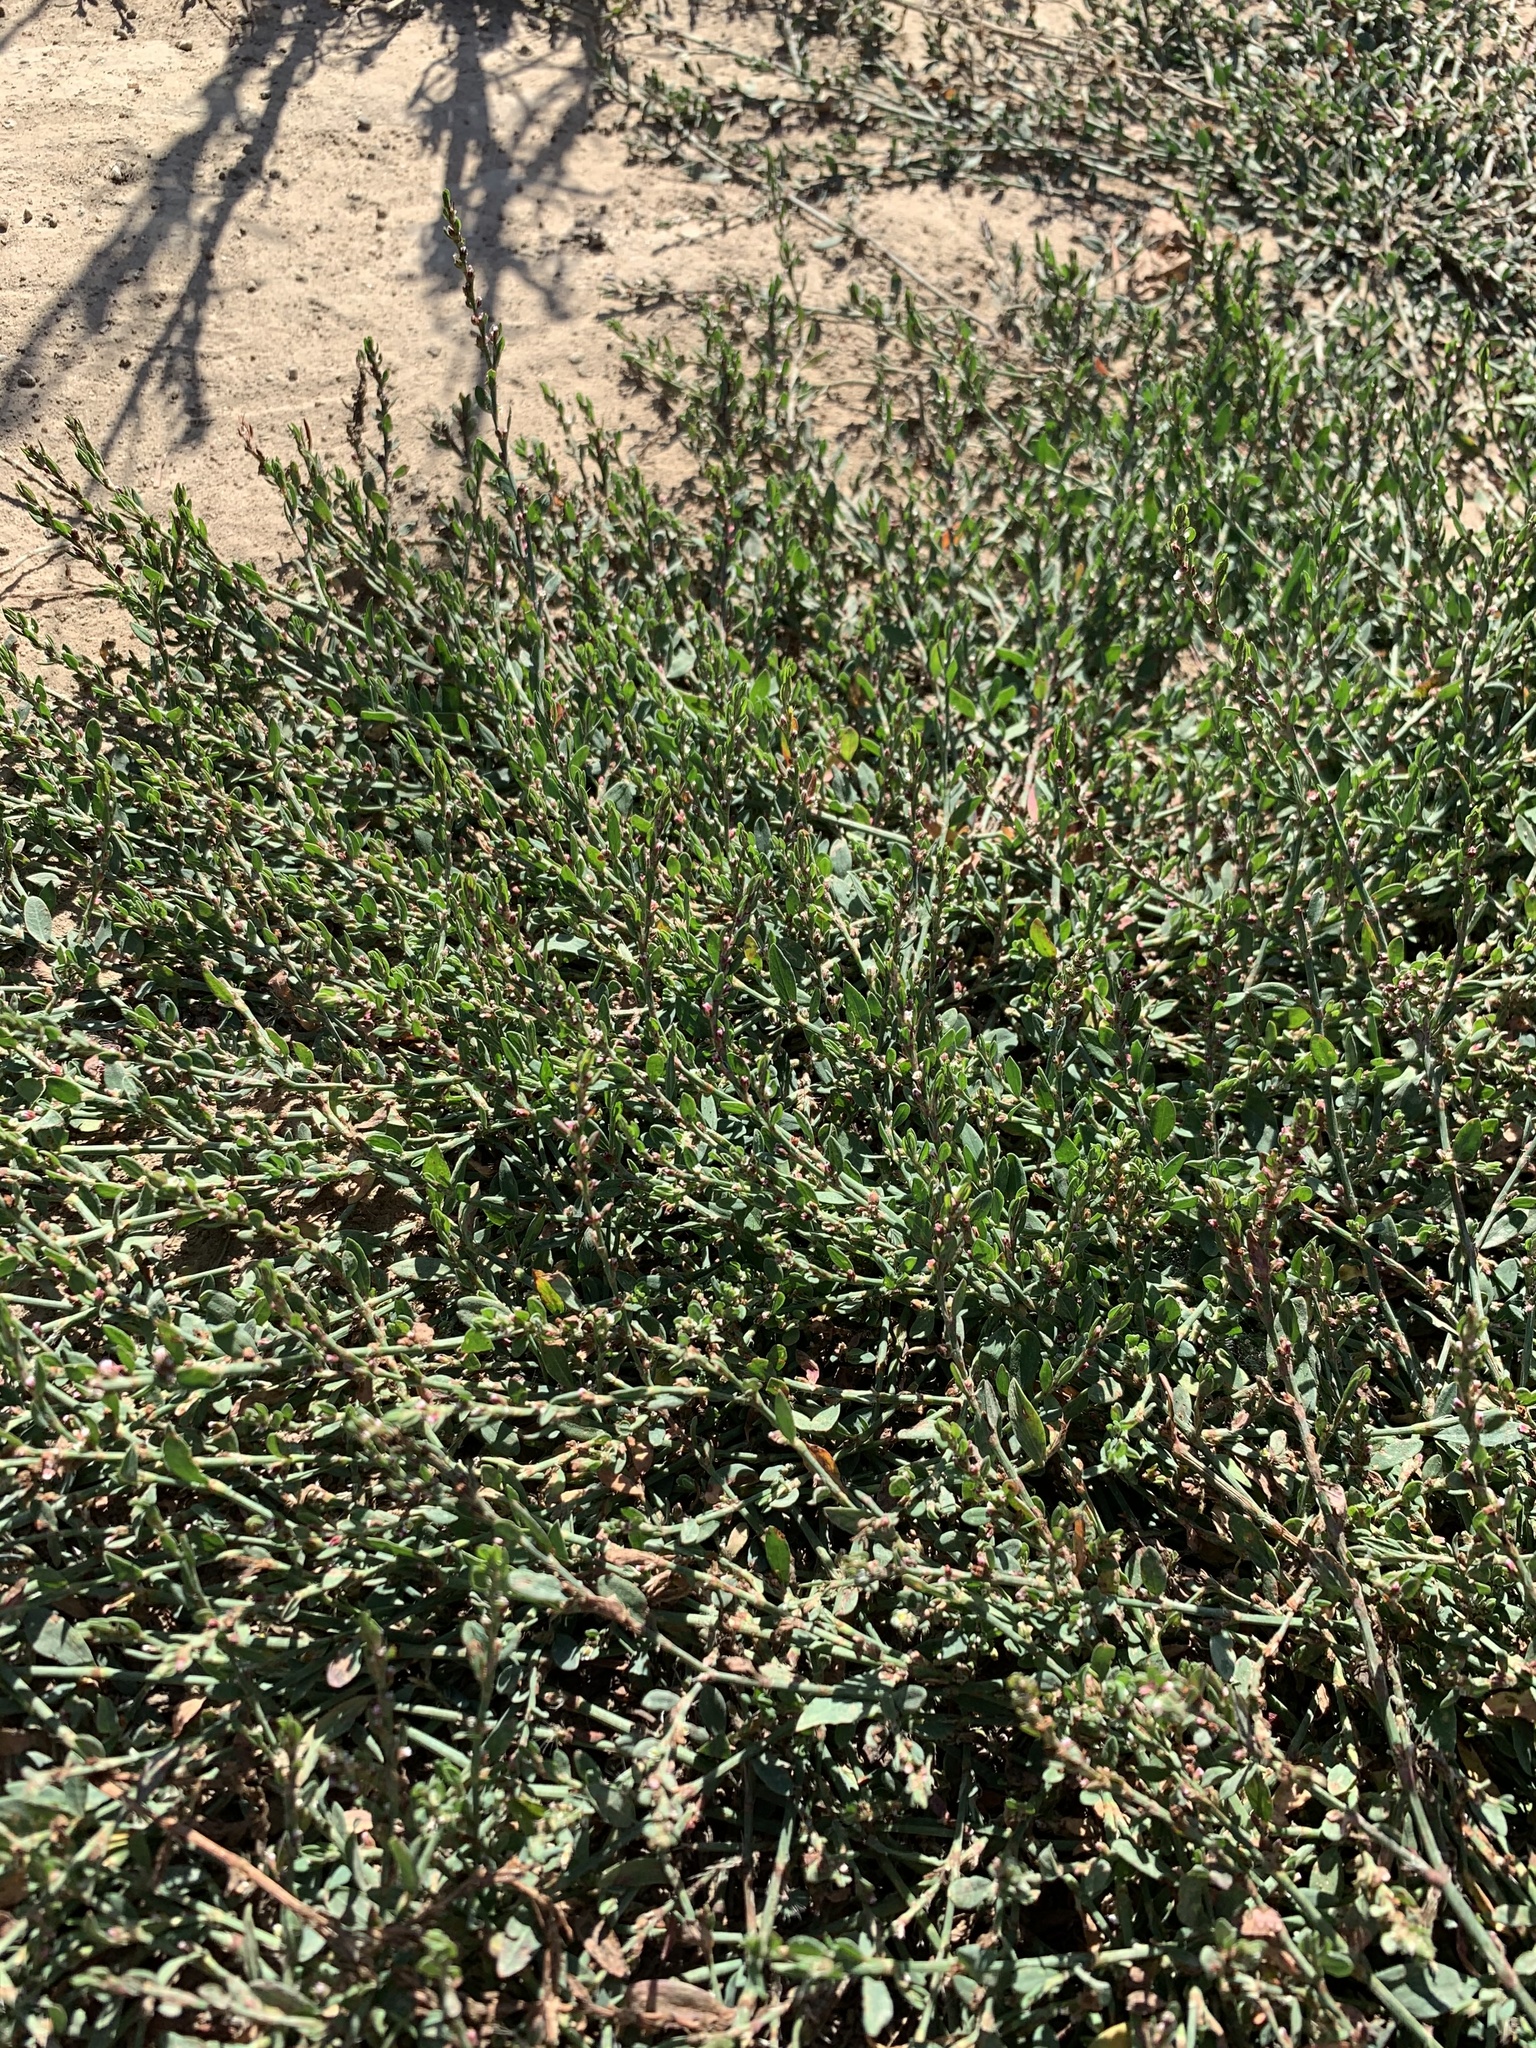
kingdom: Plantae
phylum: Tracheophyta
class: Magnoliopsida
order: Caryophyllales
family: Polygonaceae
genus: Polygonum
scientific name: Polygonum aviculare
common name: Prostrate knotweed
